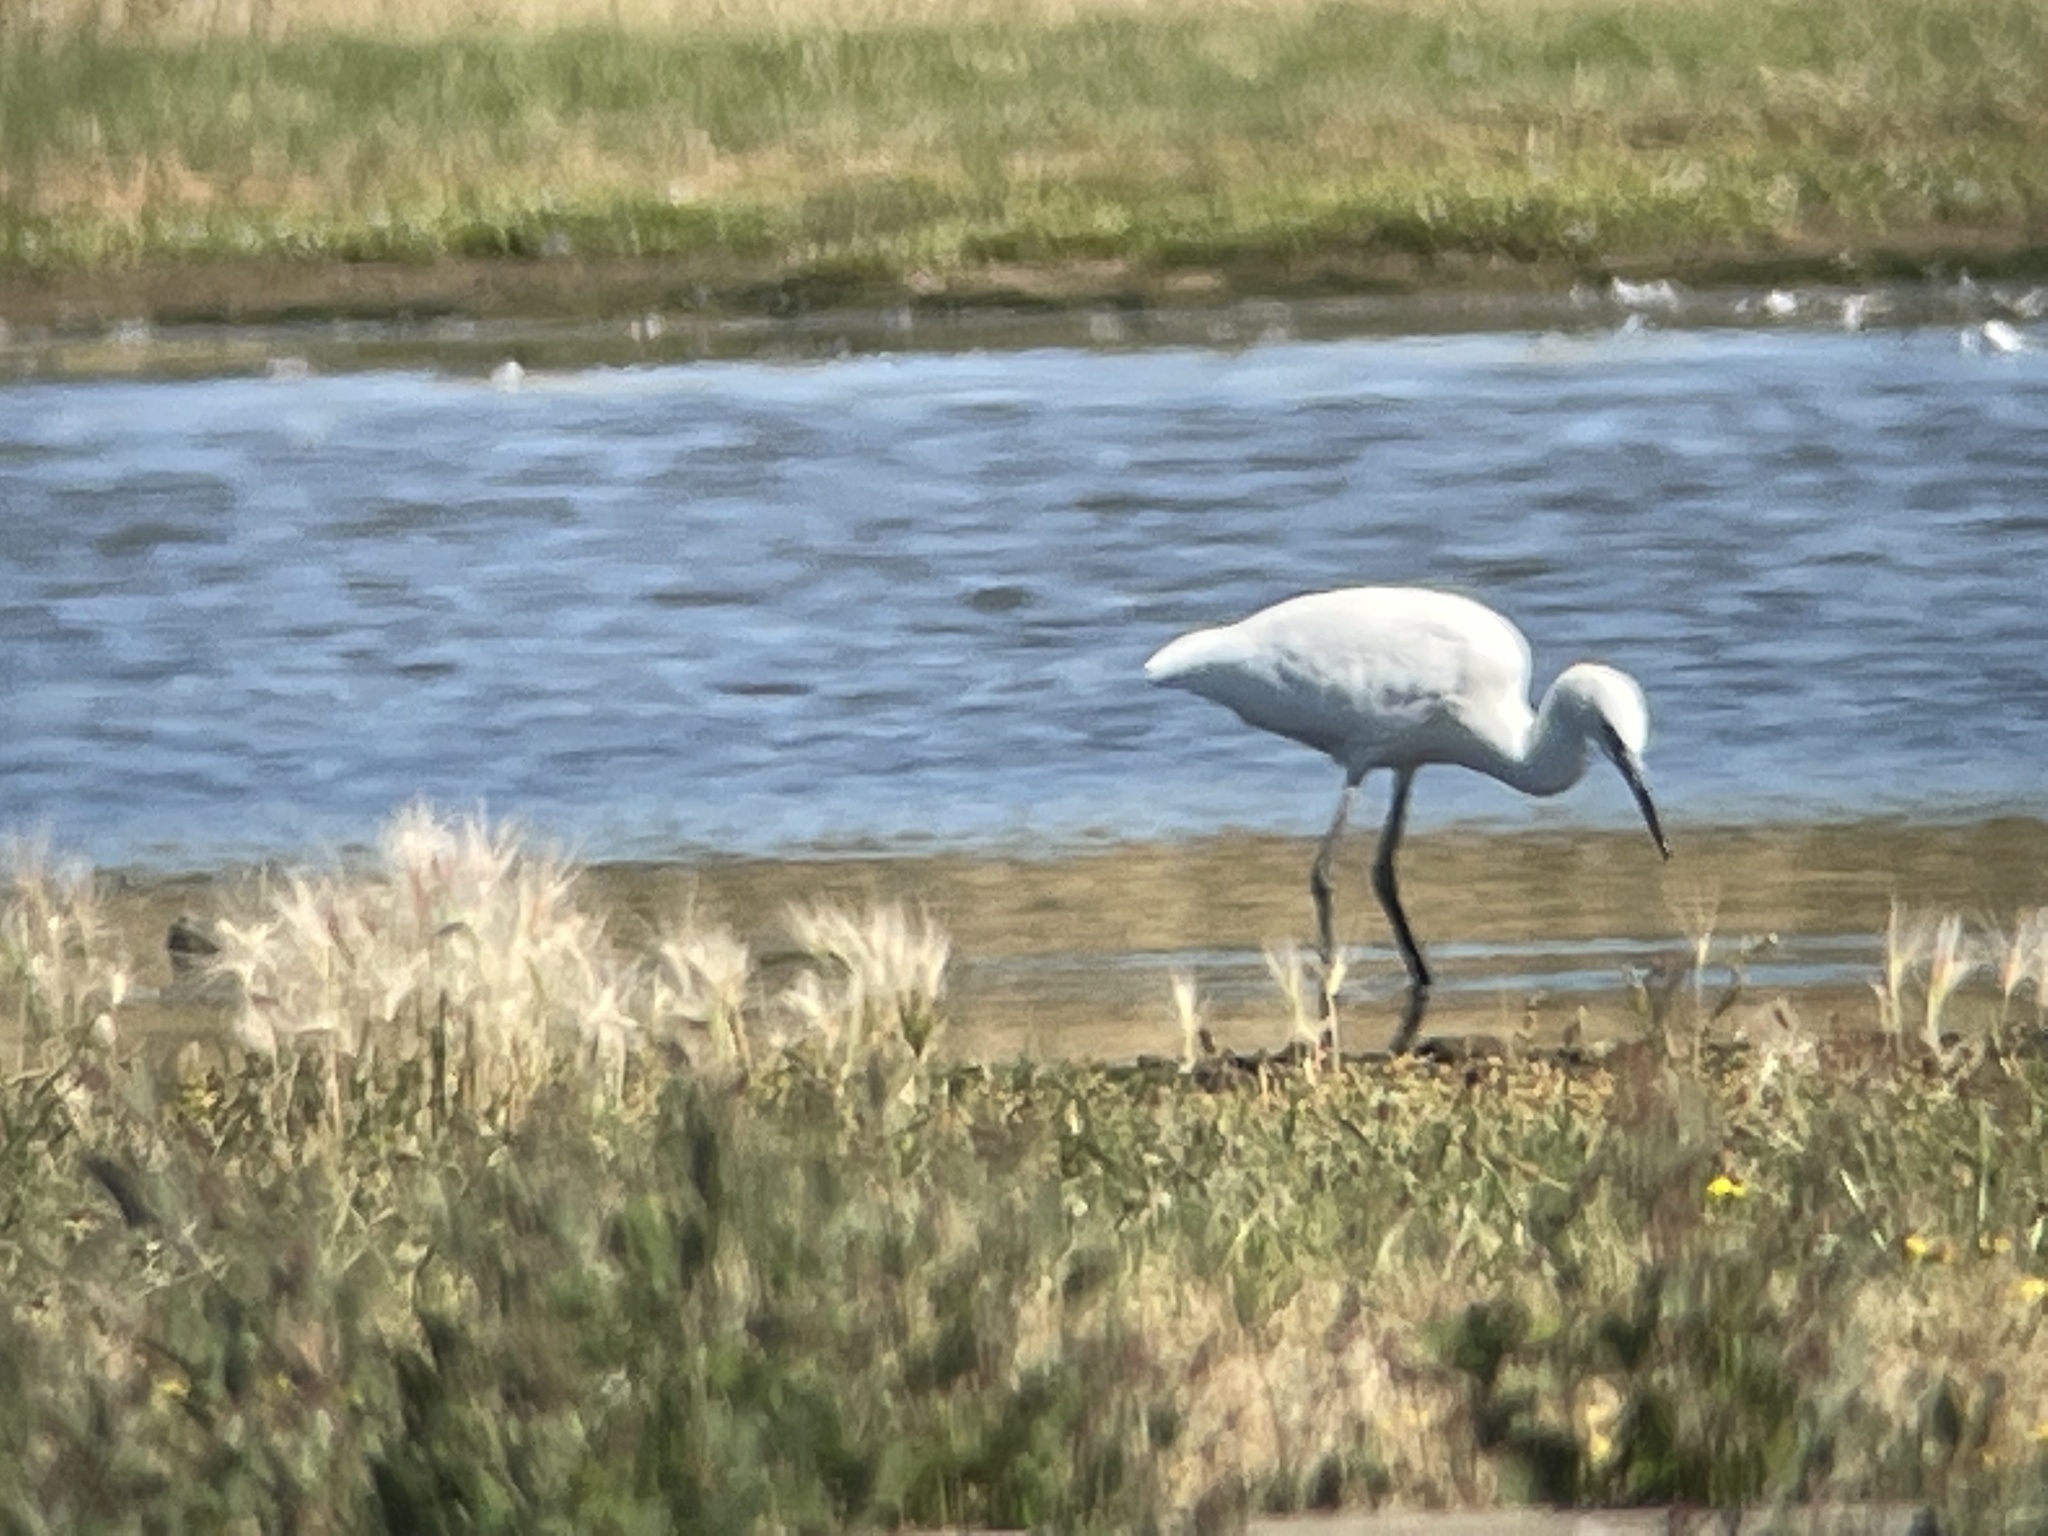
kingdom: Animalia
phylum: Chordata
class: Aves
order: Pelecaniformes
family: Ardeidae
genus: Egretta
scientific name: Egretta garzetta
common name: Little egret
